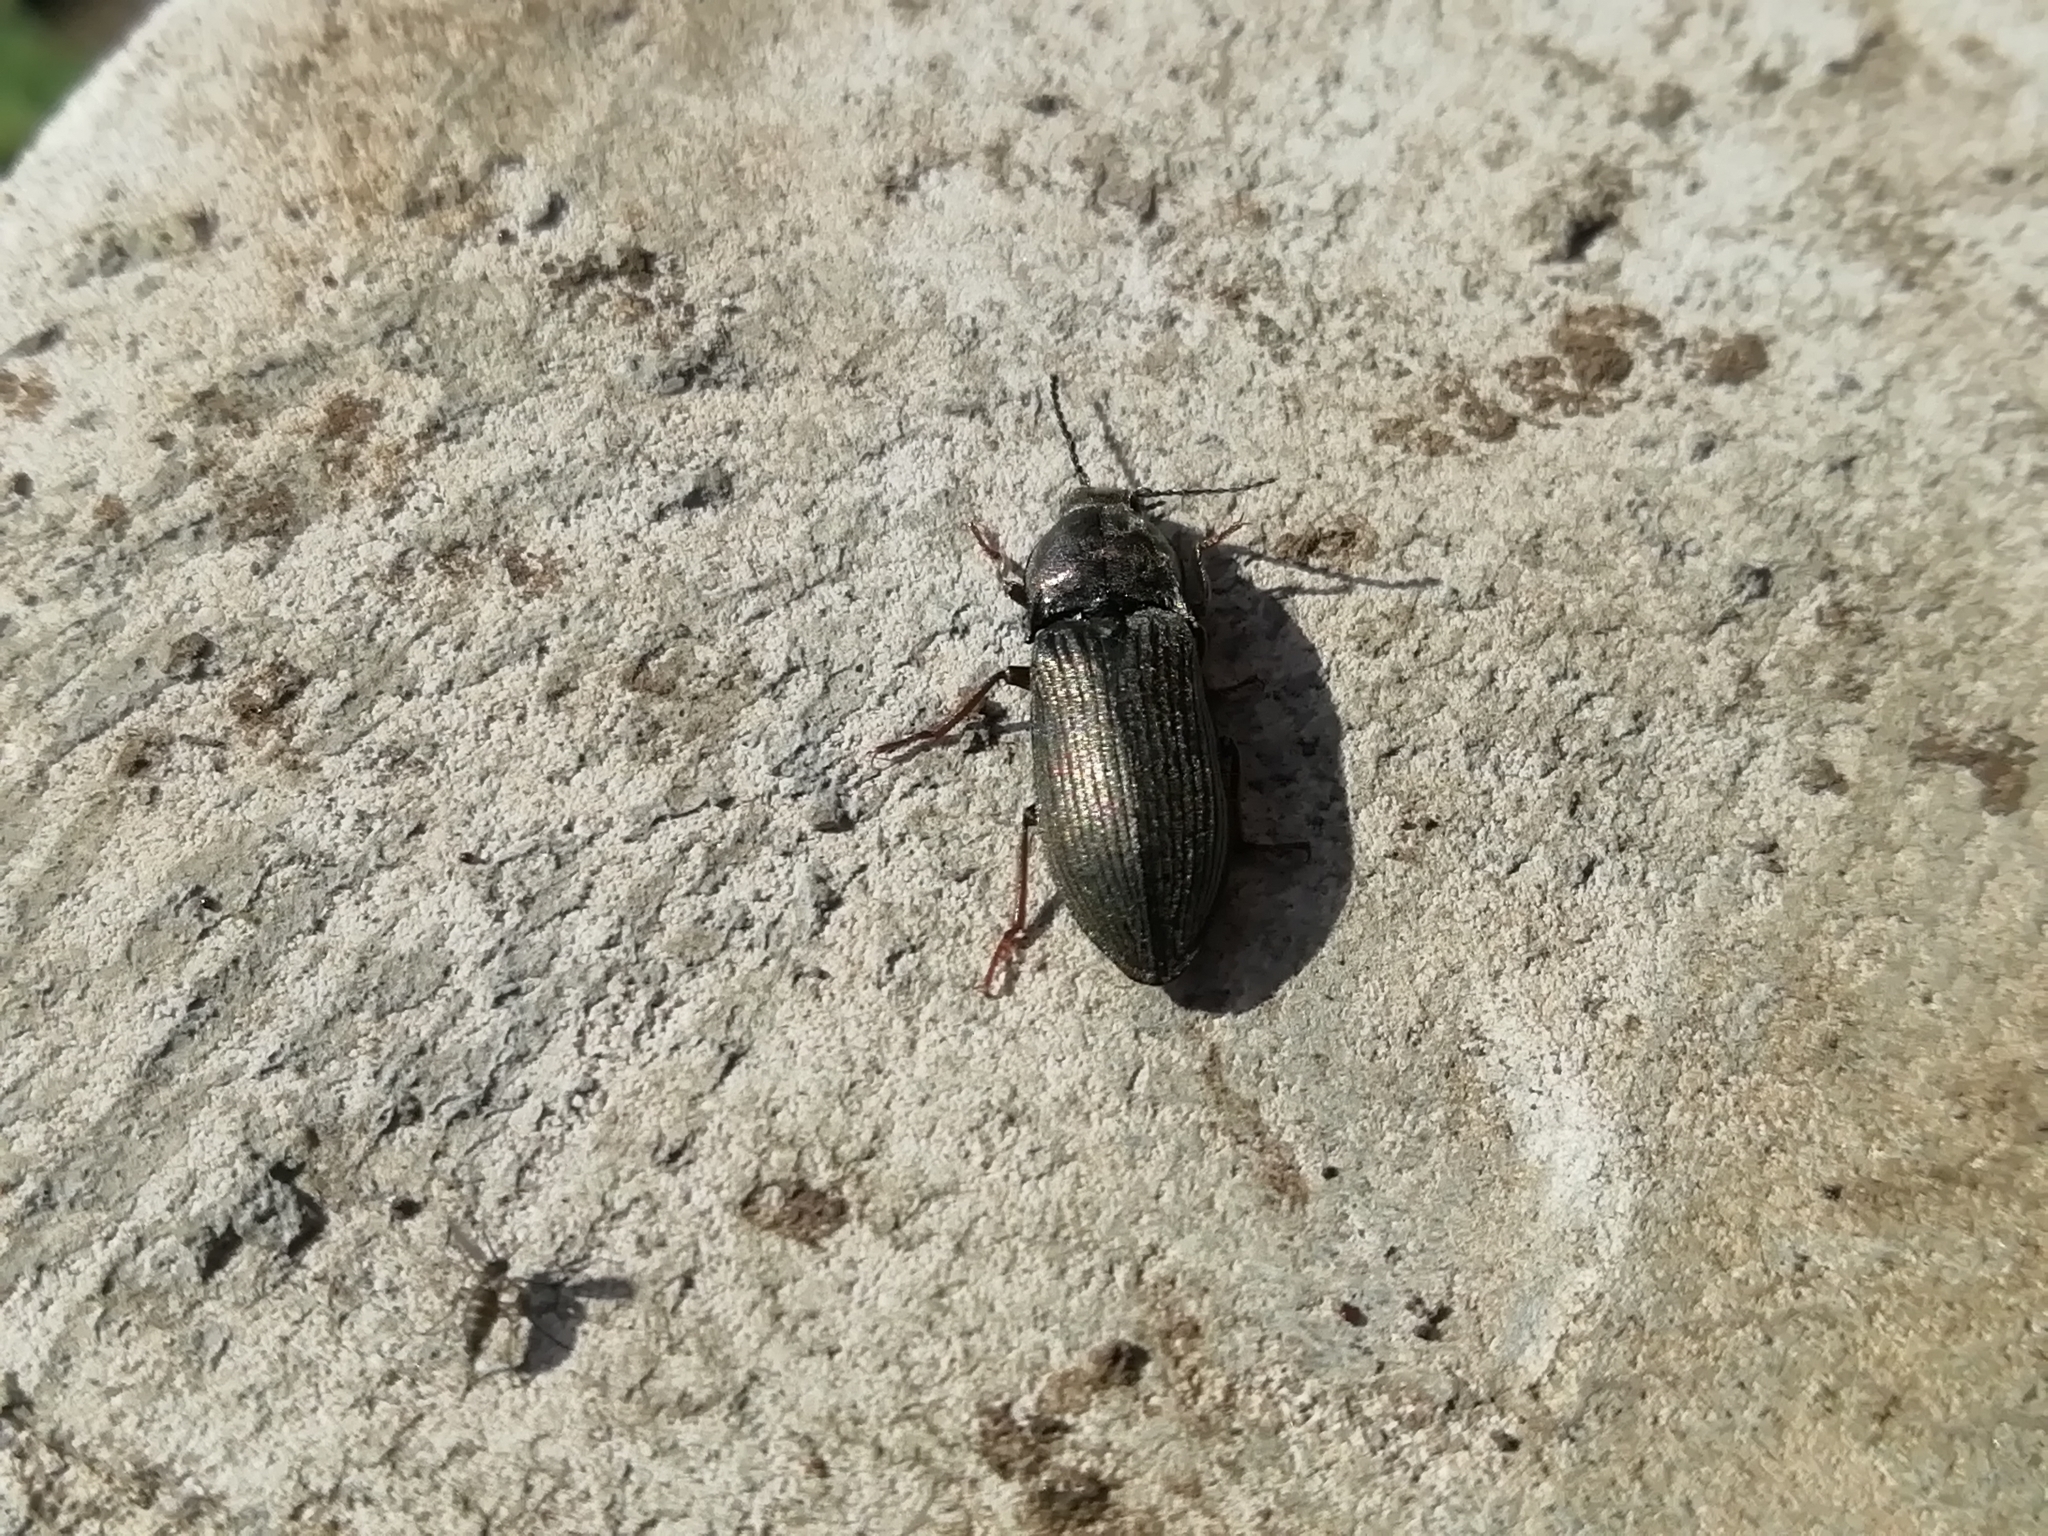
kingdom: Animalia
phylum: Arthropoda
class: Insecta
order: Coleoptera
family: Elateridae
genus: Selatosomus
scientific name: Selatosomus latus
